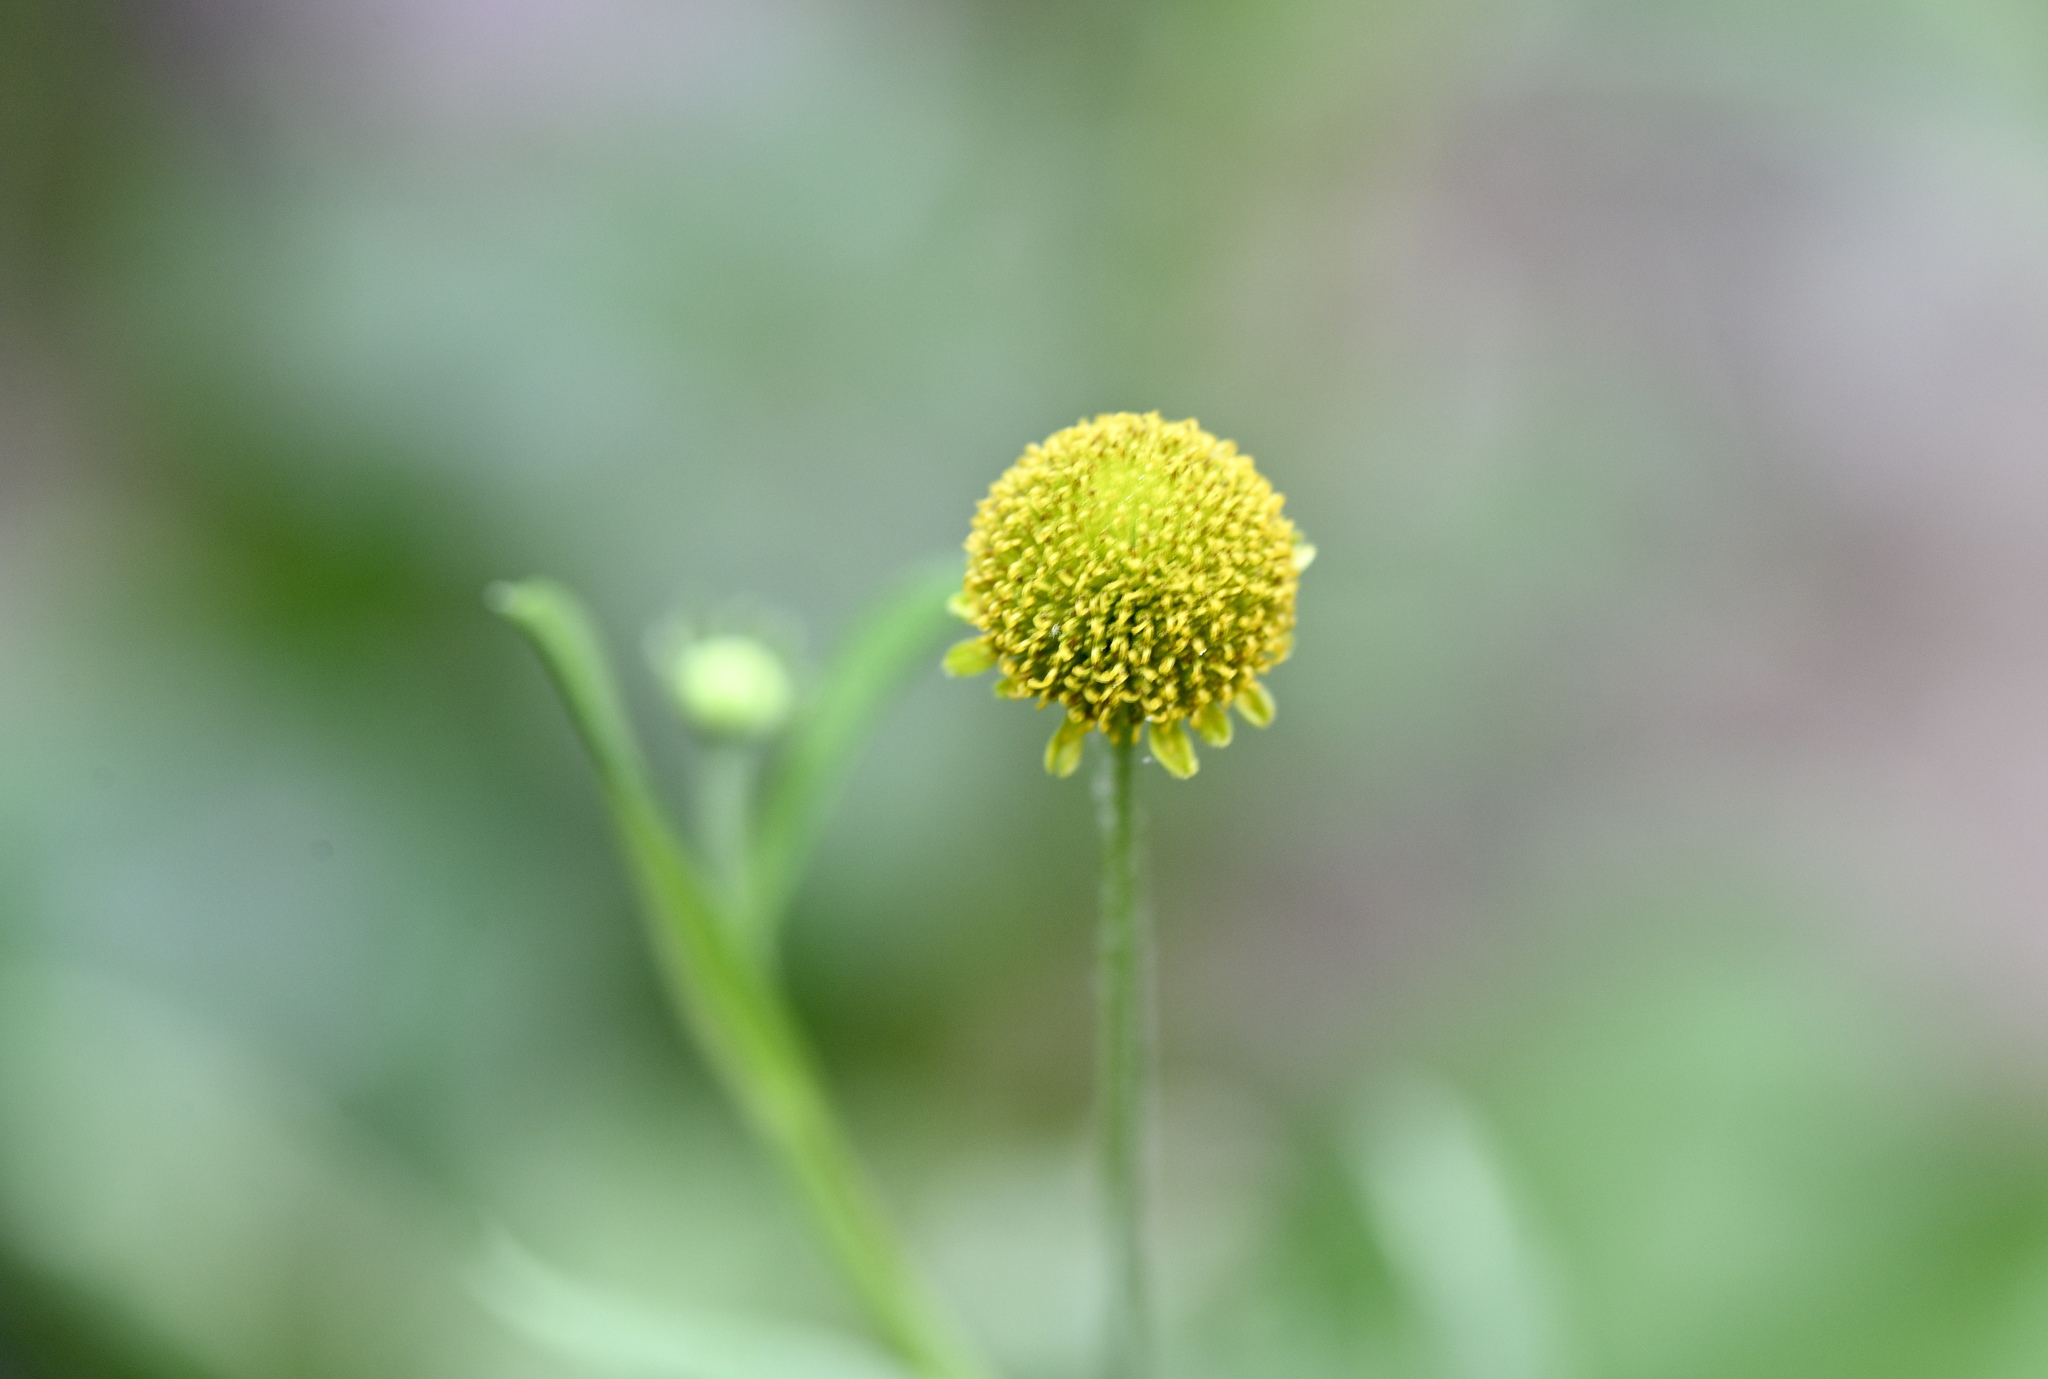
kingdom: Plantae
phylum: Tracheophyta
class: Magnoliopsida
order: Asterales
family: Asteraceae
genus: Helenium
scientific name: Helenium puberulum
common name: Sneezewort
